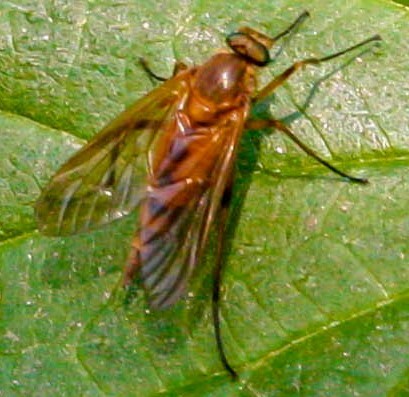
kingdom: Animalia
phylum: Arthropoda
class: Insecta
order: Diptera
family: Rhagionidae
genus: Rhagio
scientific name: Rhagio tringaria
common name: Marsh snipefly
